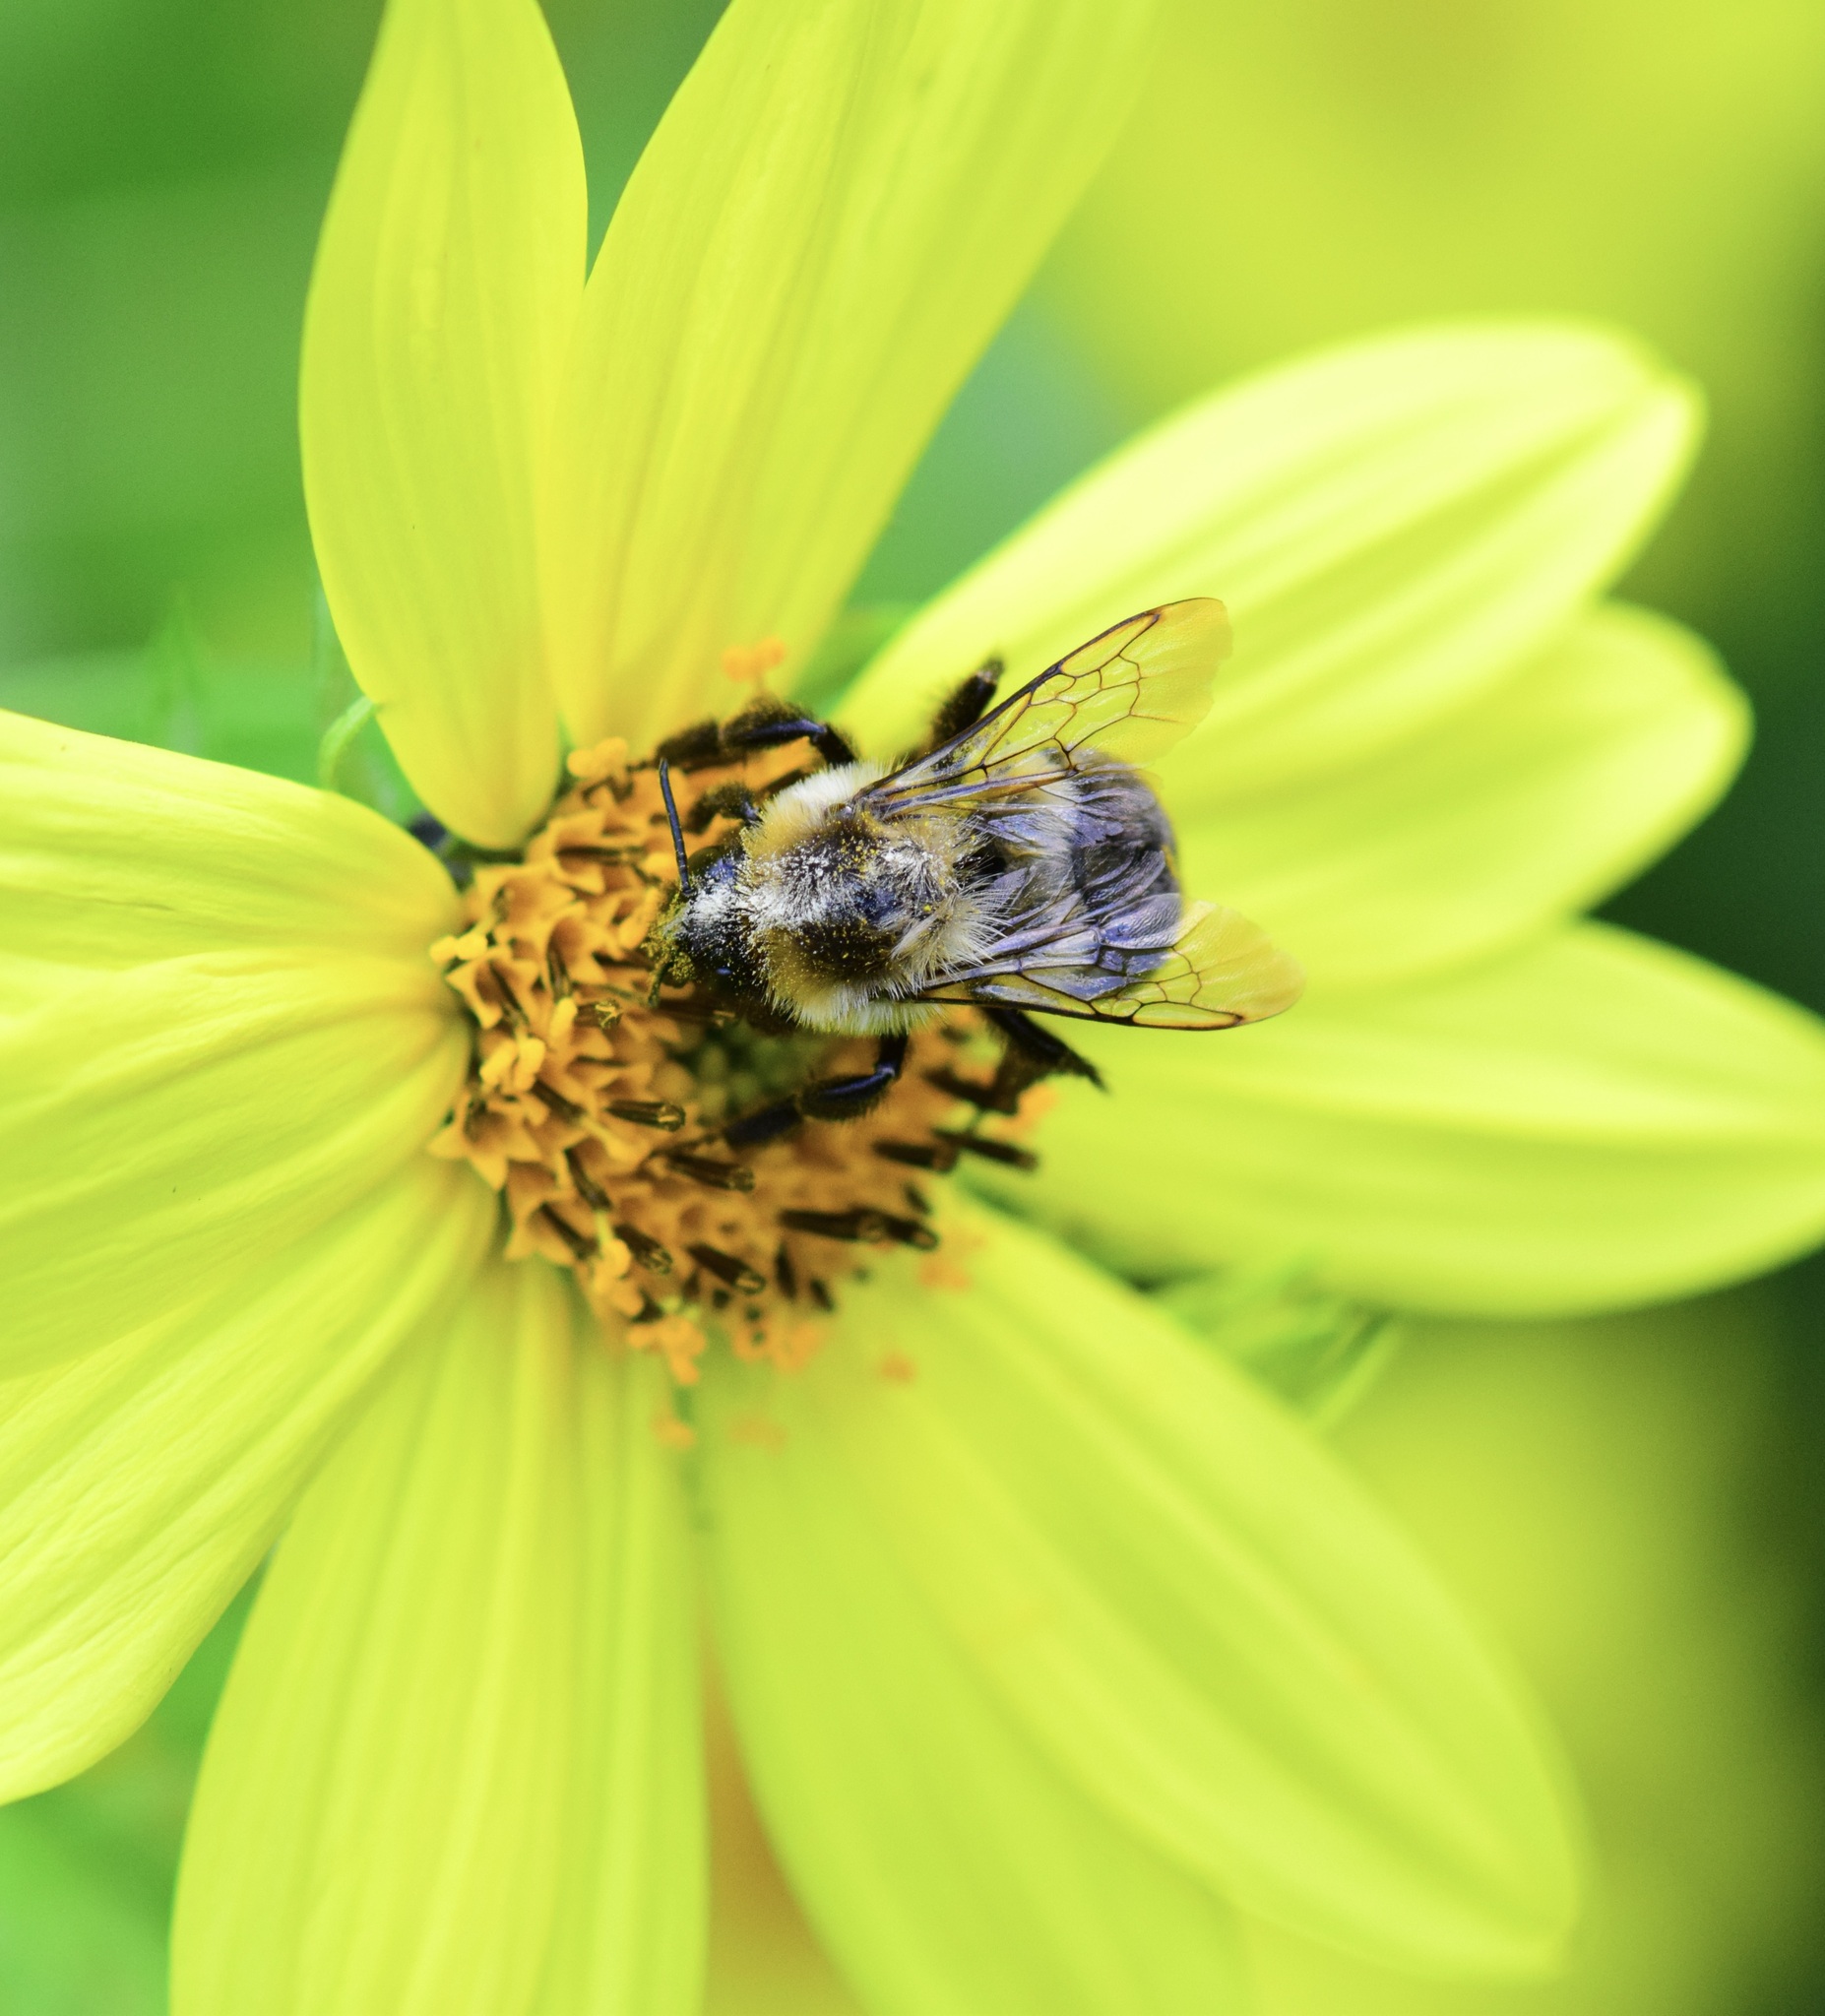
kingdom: Animalia
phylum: Arthropoda
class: Insecta
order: Hymenoptera
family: Apidae
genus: Bombus
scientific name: Bombus impatiens
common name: Common eastern bumble bee
